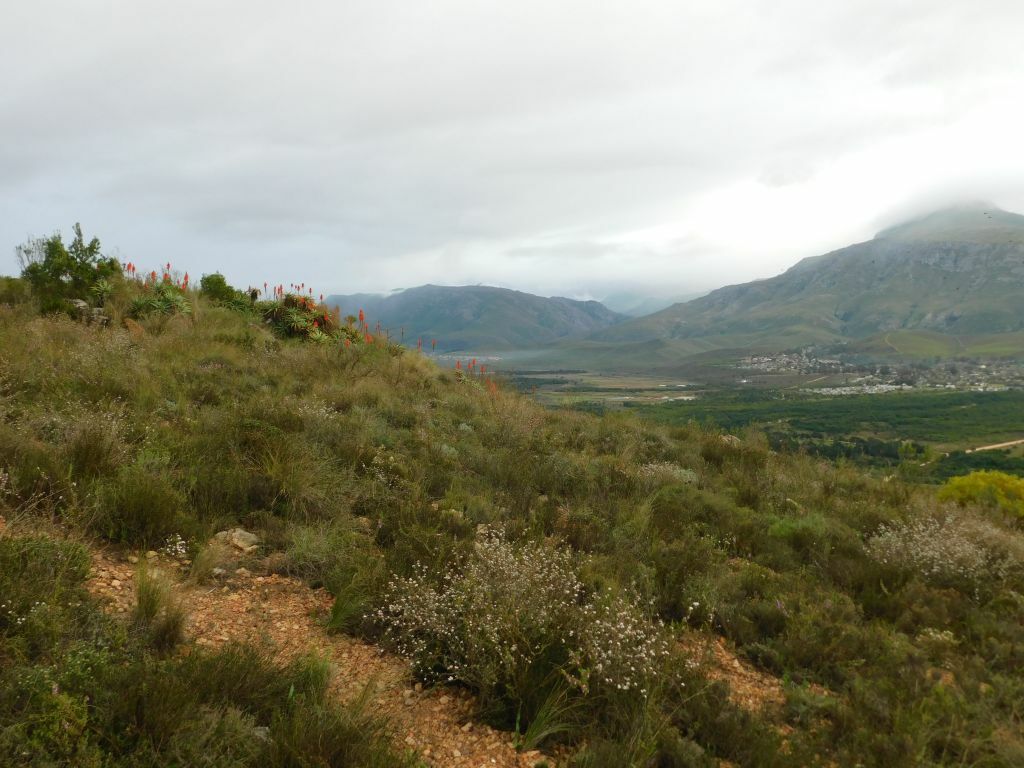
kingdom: Plantae
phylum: Tracheophyta
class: Liliopsida
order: Asparagales
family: Asphodelaceae
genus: Aloe
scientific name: Aloe arborescens
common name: Candelabra aloe
